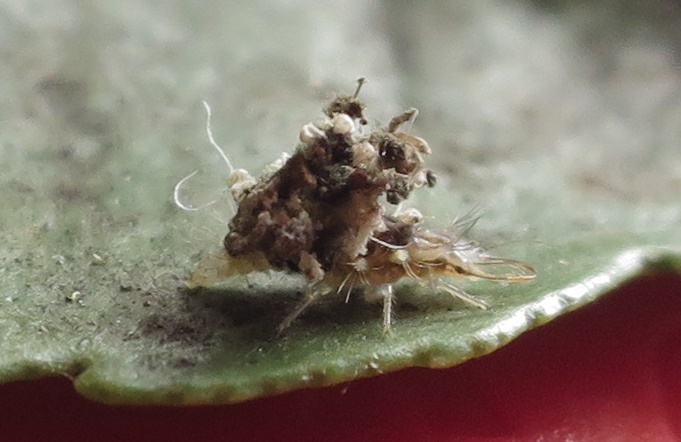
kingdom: Animalia
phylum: Arthropoda
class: Insecta
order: Neuroptera
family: Chrysopidae
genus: Mallada
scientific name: Mallada basalis
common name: Green lacewing
